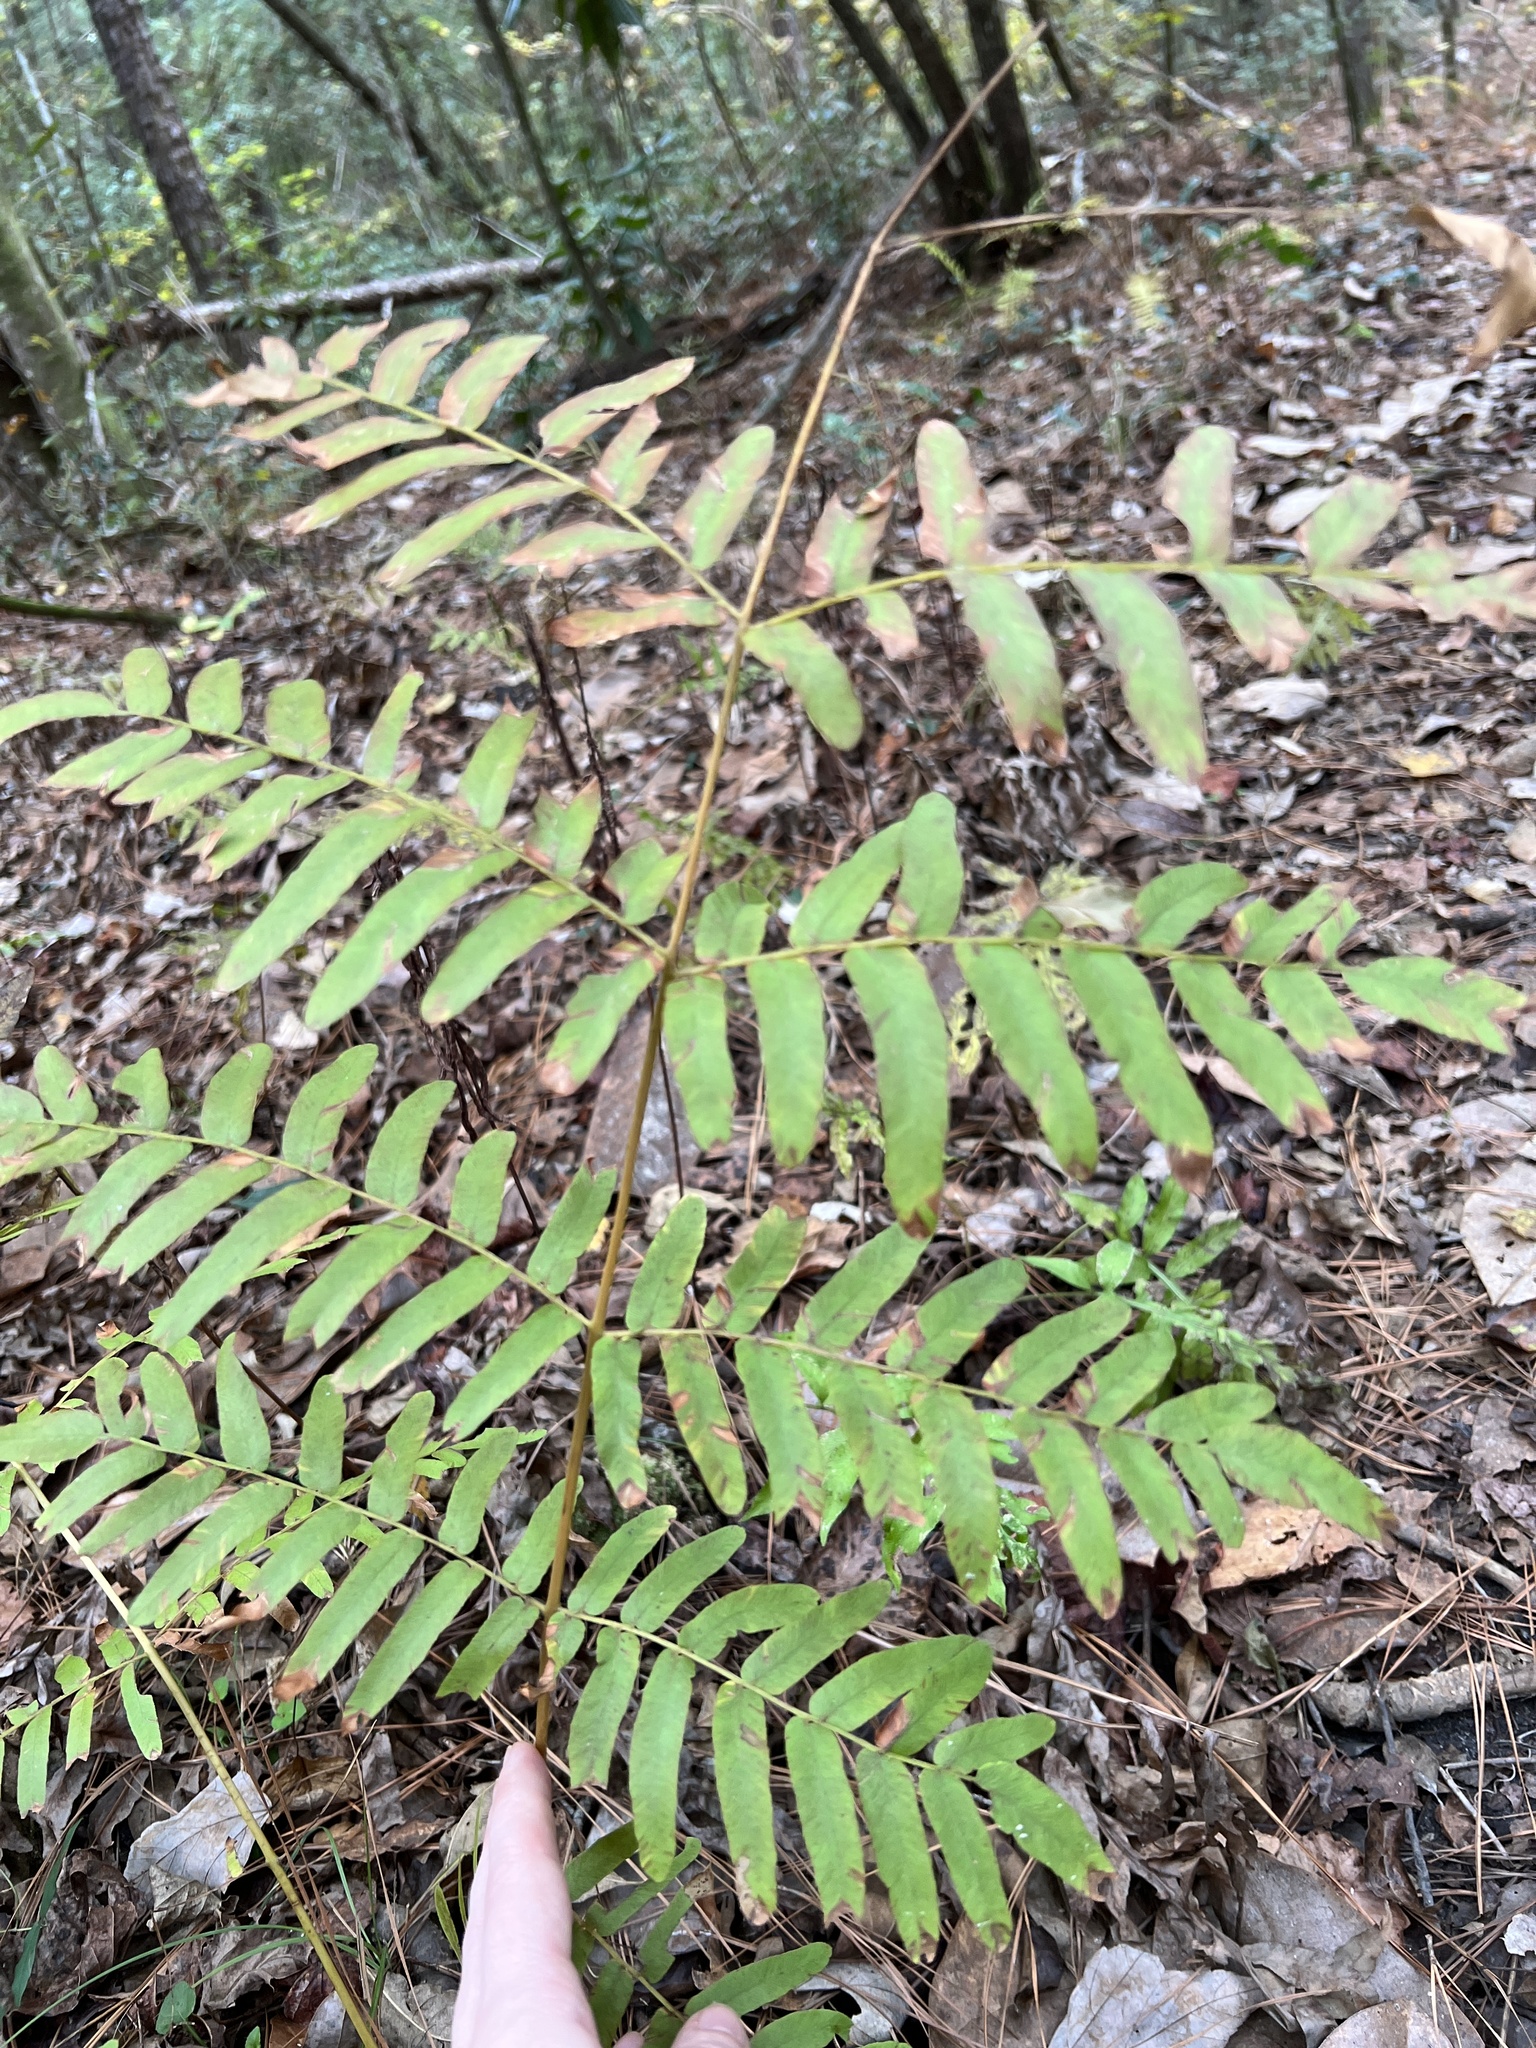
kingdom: Plantae
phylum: Tracheophyta
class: Polypodiopsida
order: Osmundales
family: Osmundaceae
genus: Osmunda
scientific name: Osmunda spectabilis
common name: American royal fern
